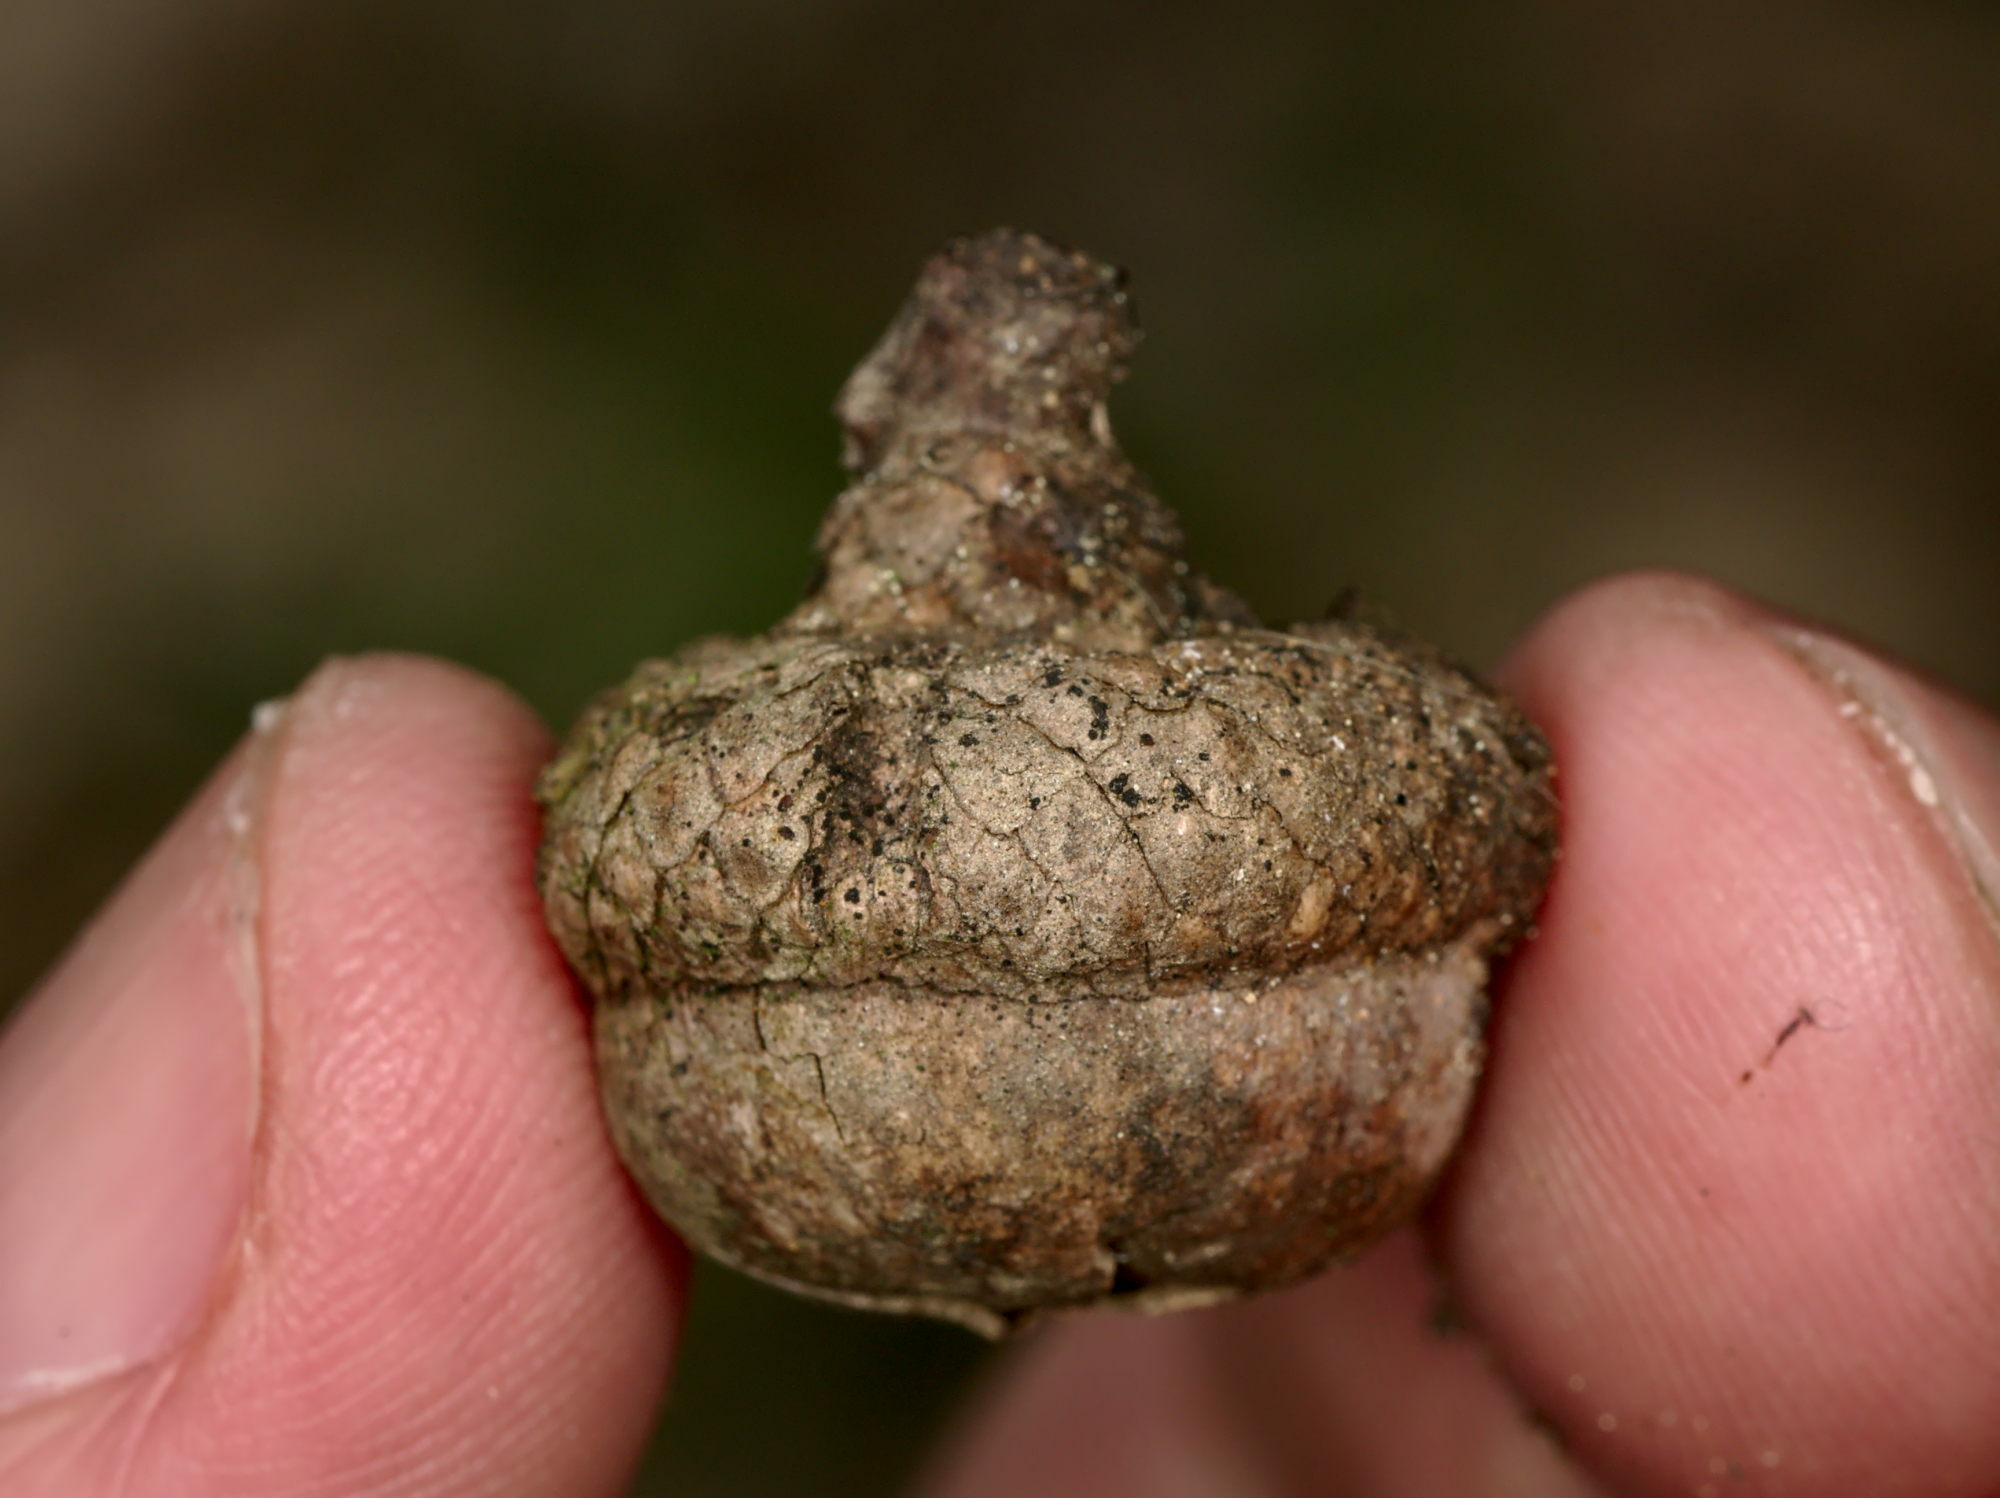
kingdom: Plantae
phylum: Tracheophyta
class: Magnoliopsida
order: Fagales
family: Fagaceae
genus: Quercus
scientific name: Quercus rubra
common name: Red oak
